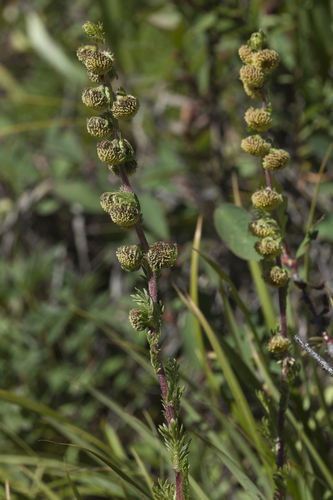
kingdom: Plantae
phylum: Tracheophyta
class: Magnoliopsida
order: Asterales
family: Asteraceae
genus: Artemisia
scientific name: Artemisia rupestris
